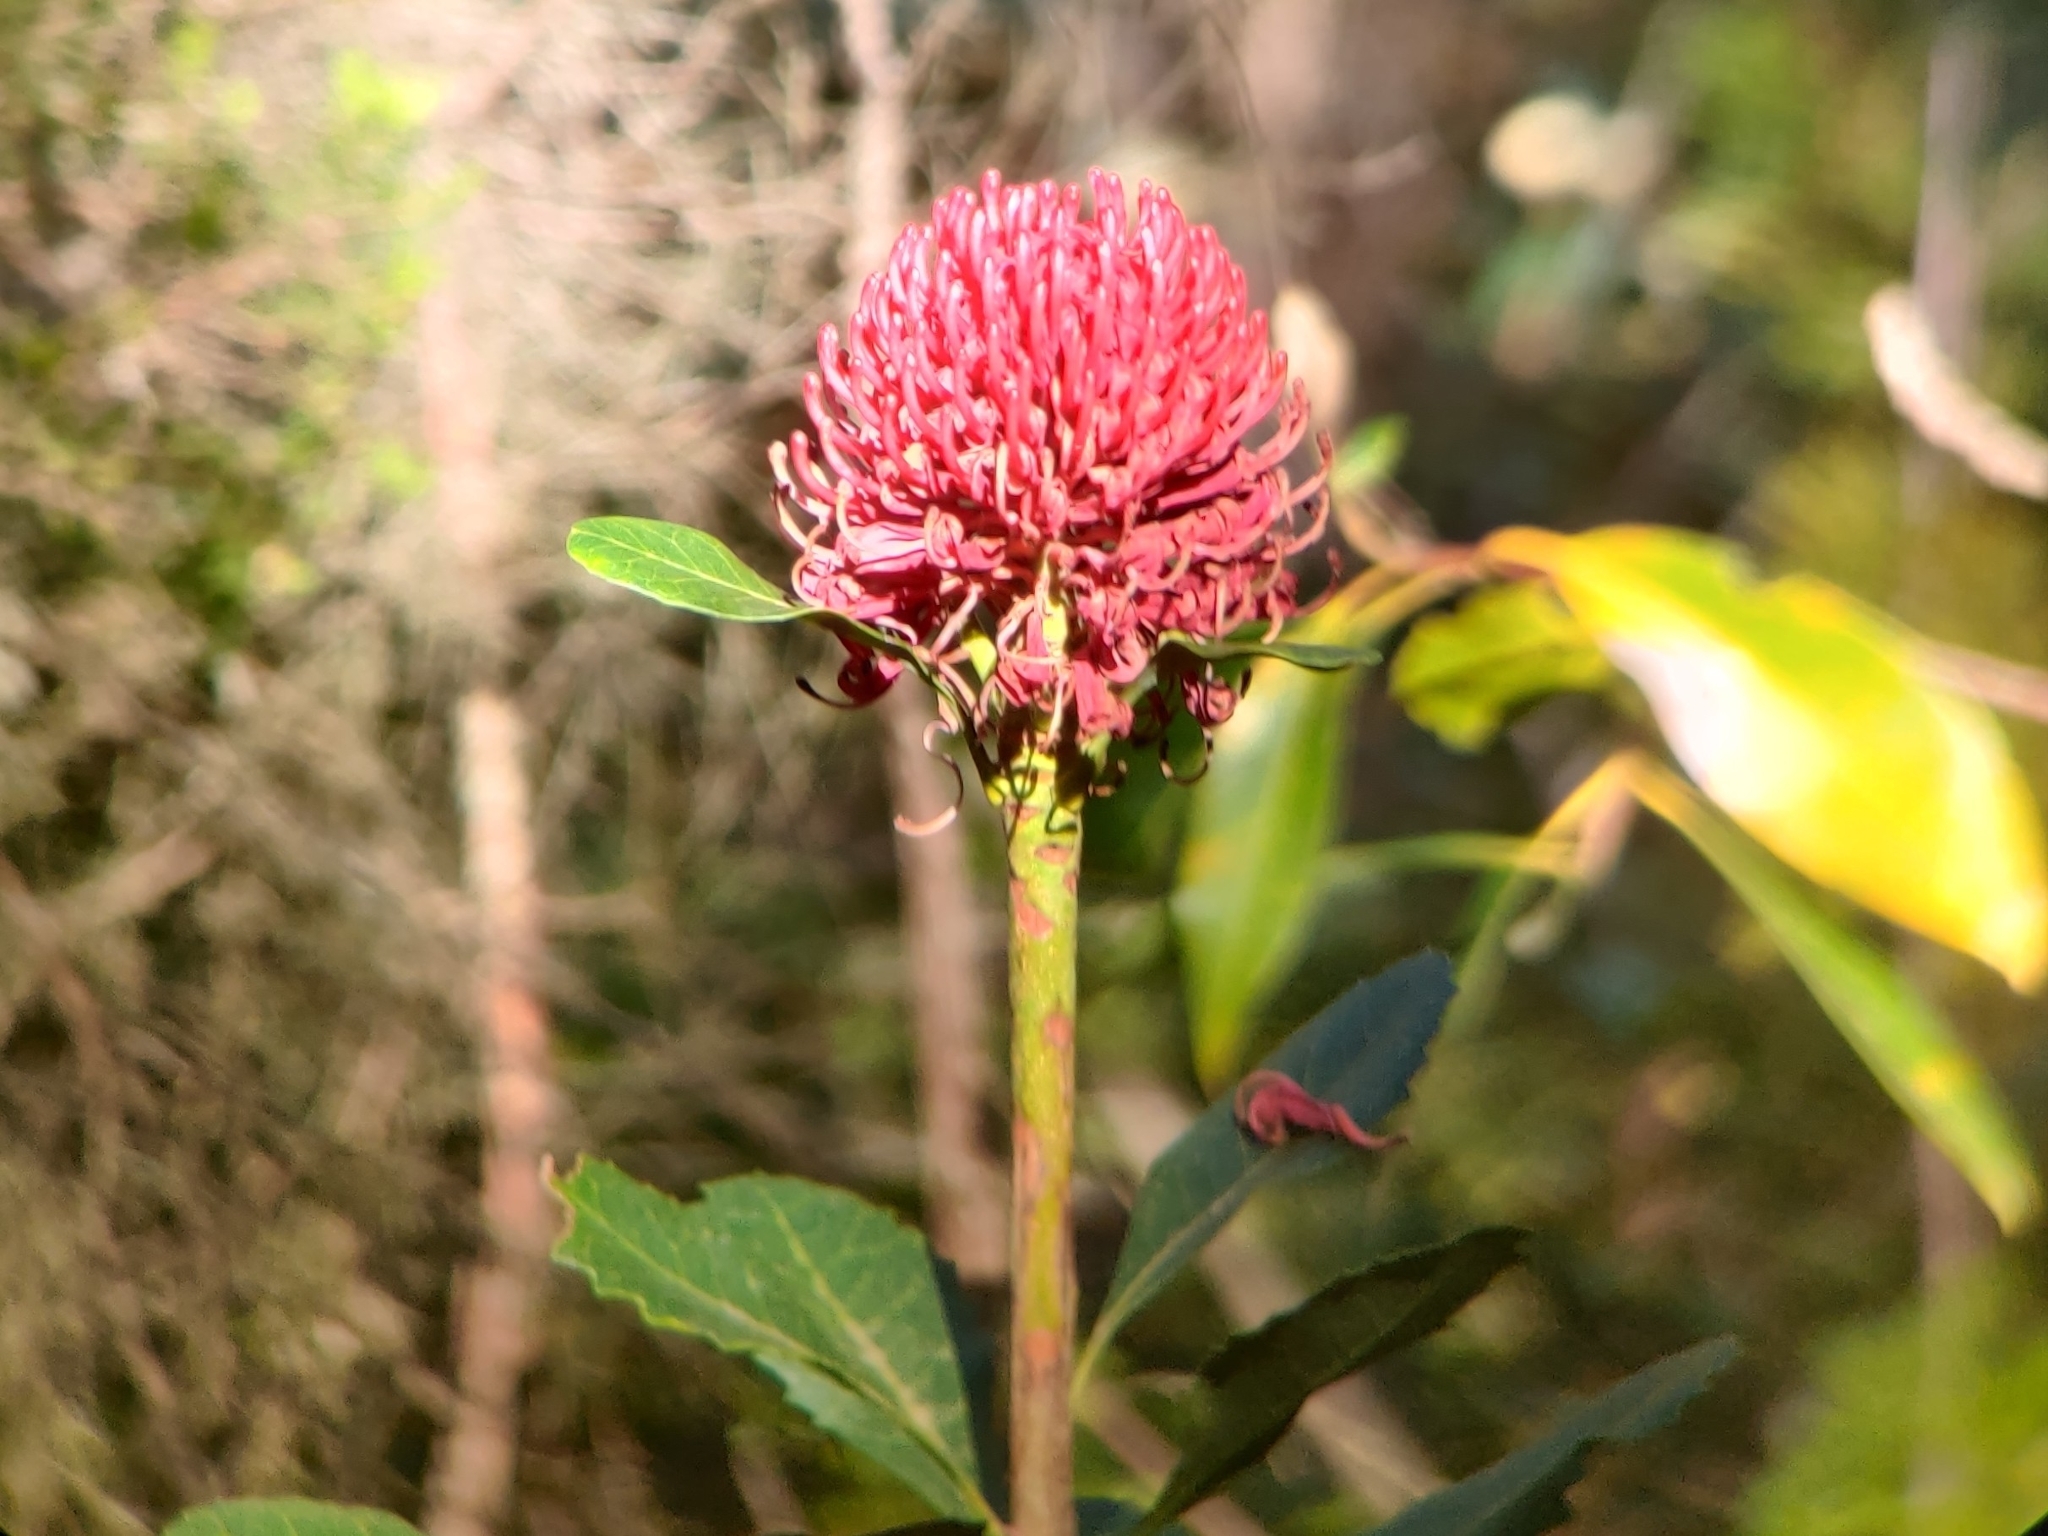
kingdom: Plantae
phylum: Tracheophyta
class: Magnoliopsida
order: Proteales
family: Proteaceae
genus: Telopea
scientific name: Telopea speciosissima
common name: New south wales waratah
